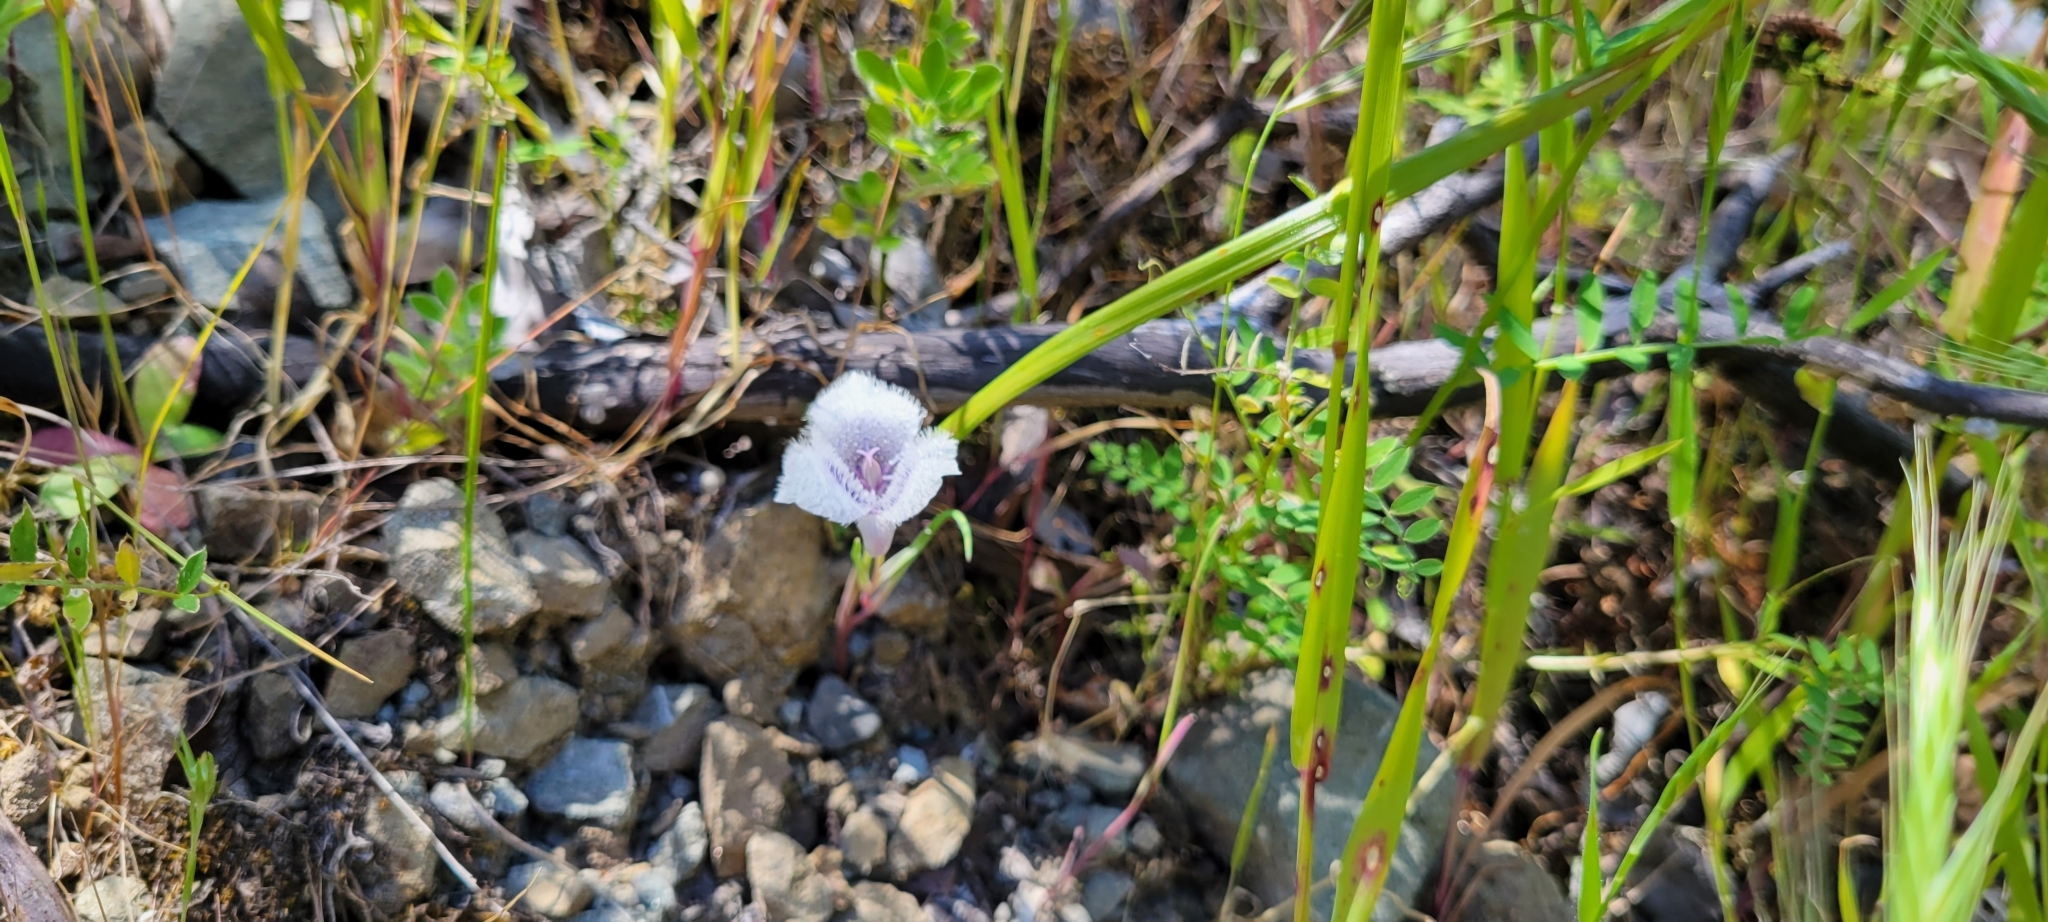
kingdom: Plantae
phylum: Tracheophyta
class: Liliopsida
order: Liliales
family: Liliaceae
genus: Calochortus
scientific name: Calochortus tolmiei
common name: Pussy-ears
